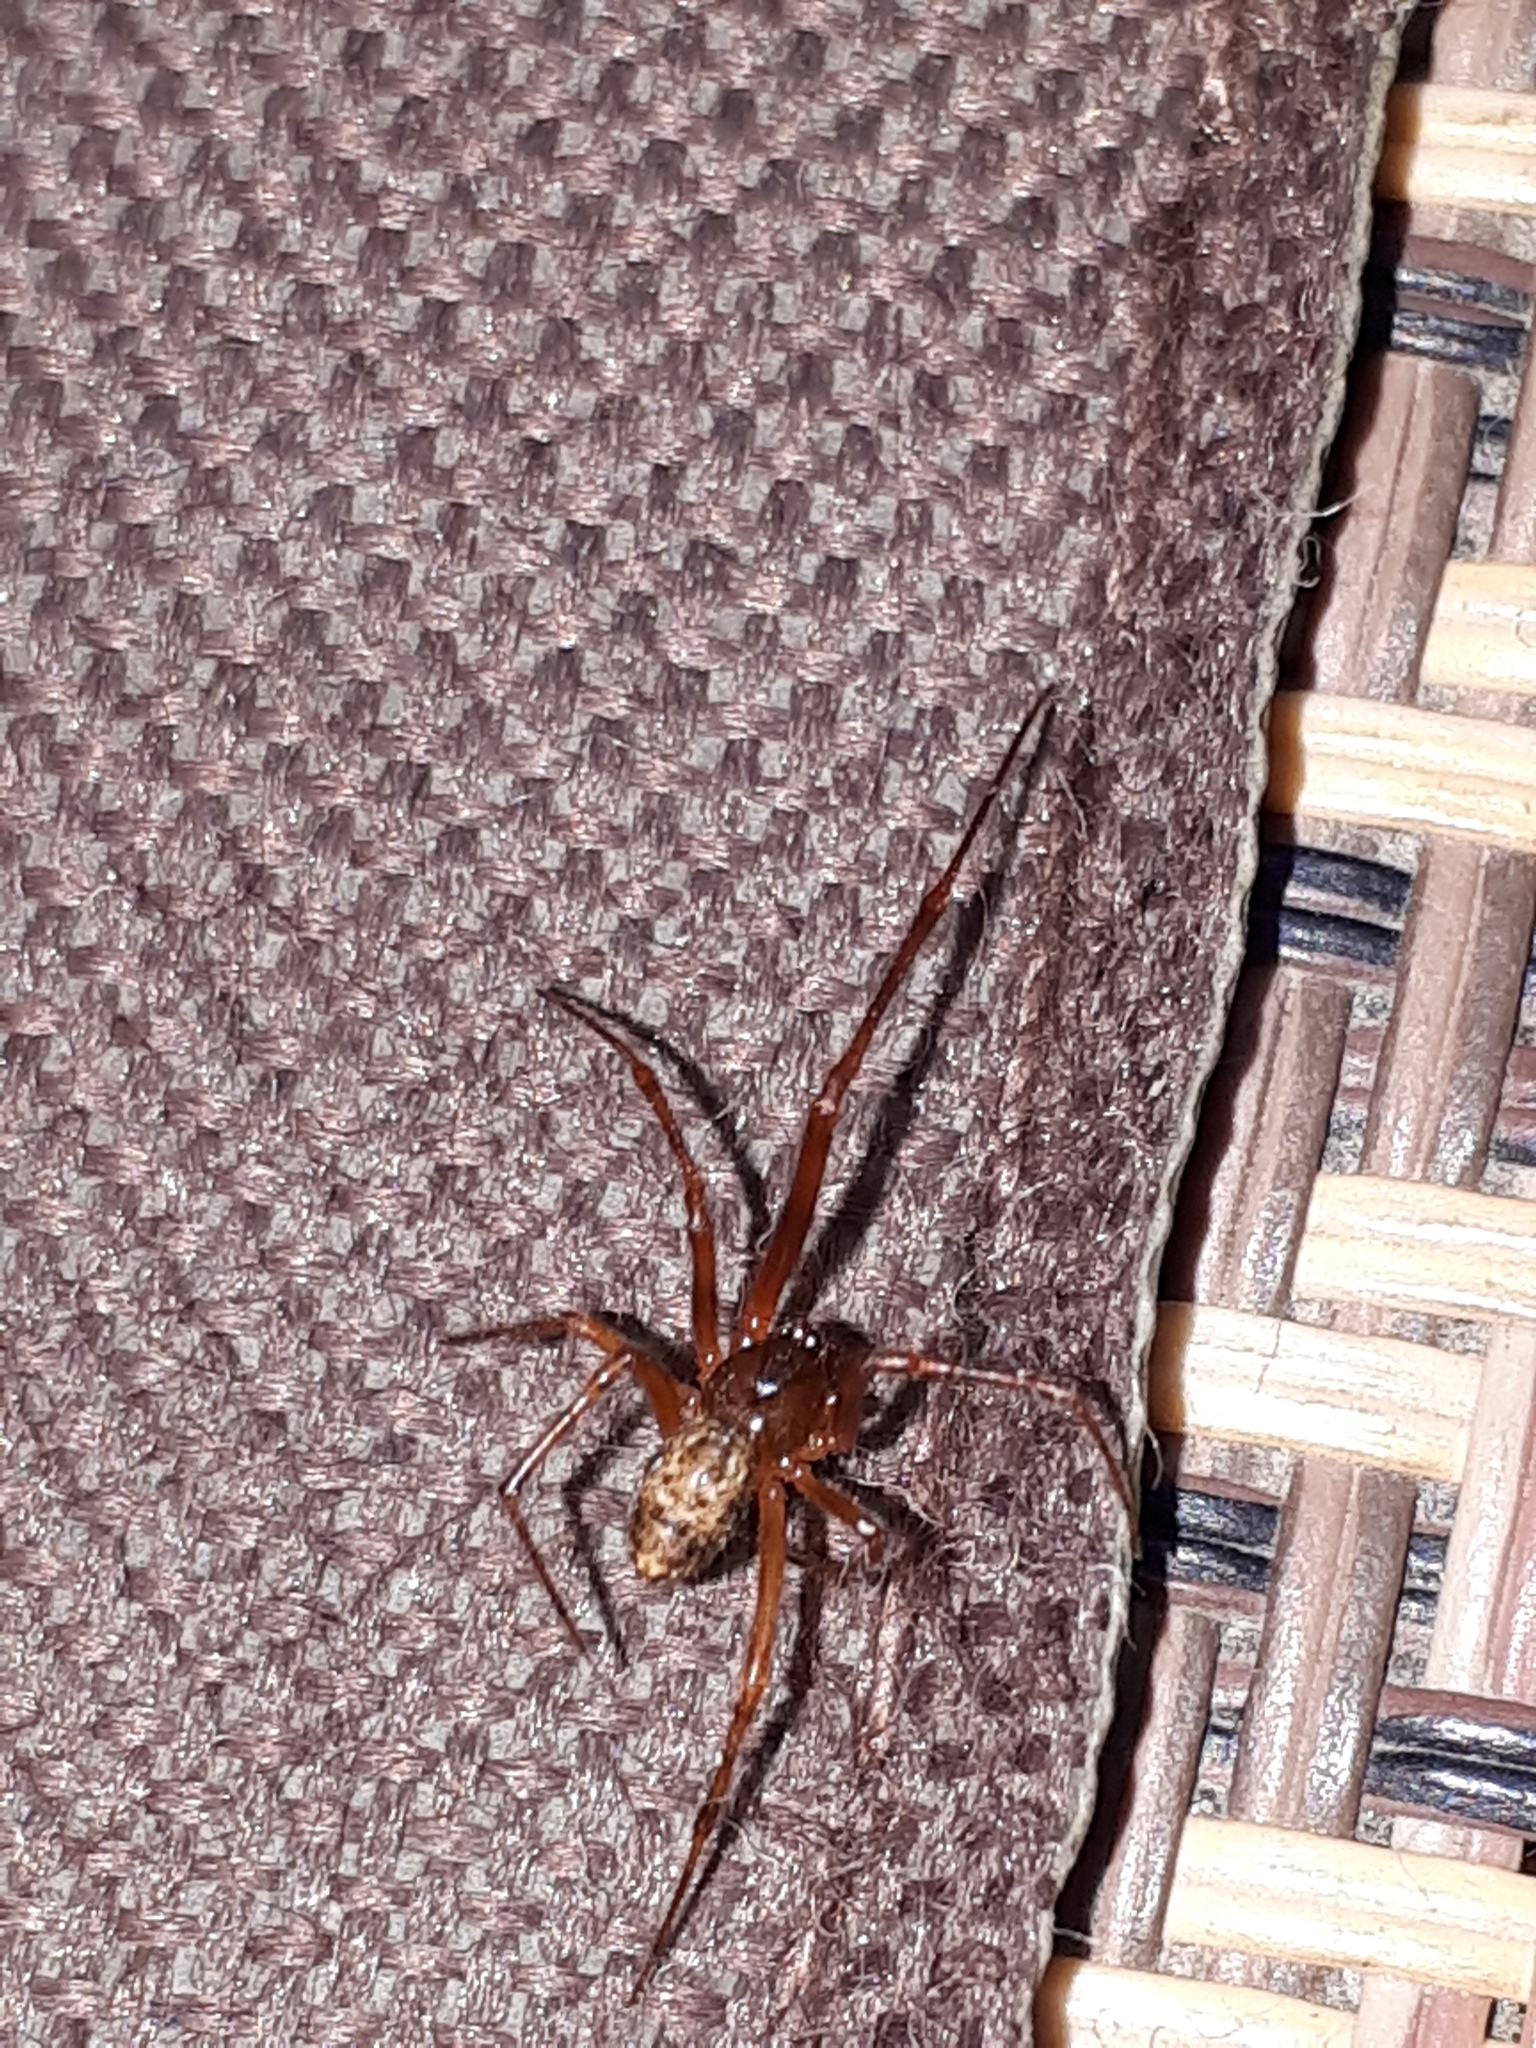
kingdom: Animalia
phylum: Arthropoda
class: Arachnida
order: Araneae
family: Theridiidae
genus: Parasteatoda
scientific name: Parasteatoda tepidariorum
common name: Common house spider
